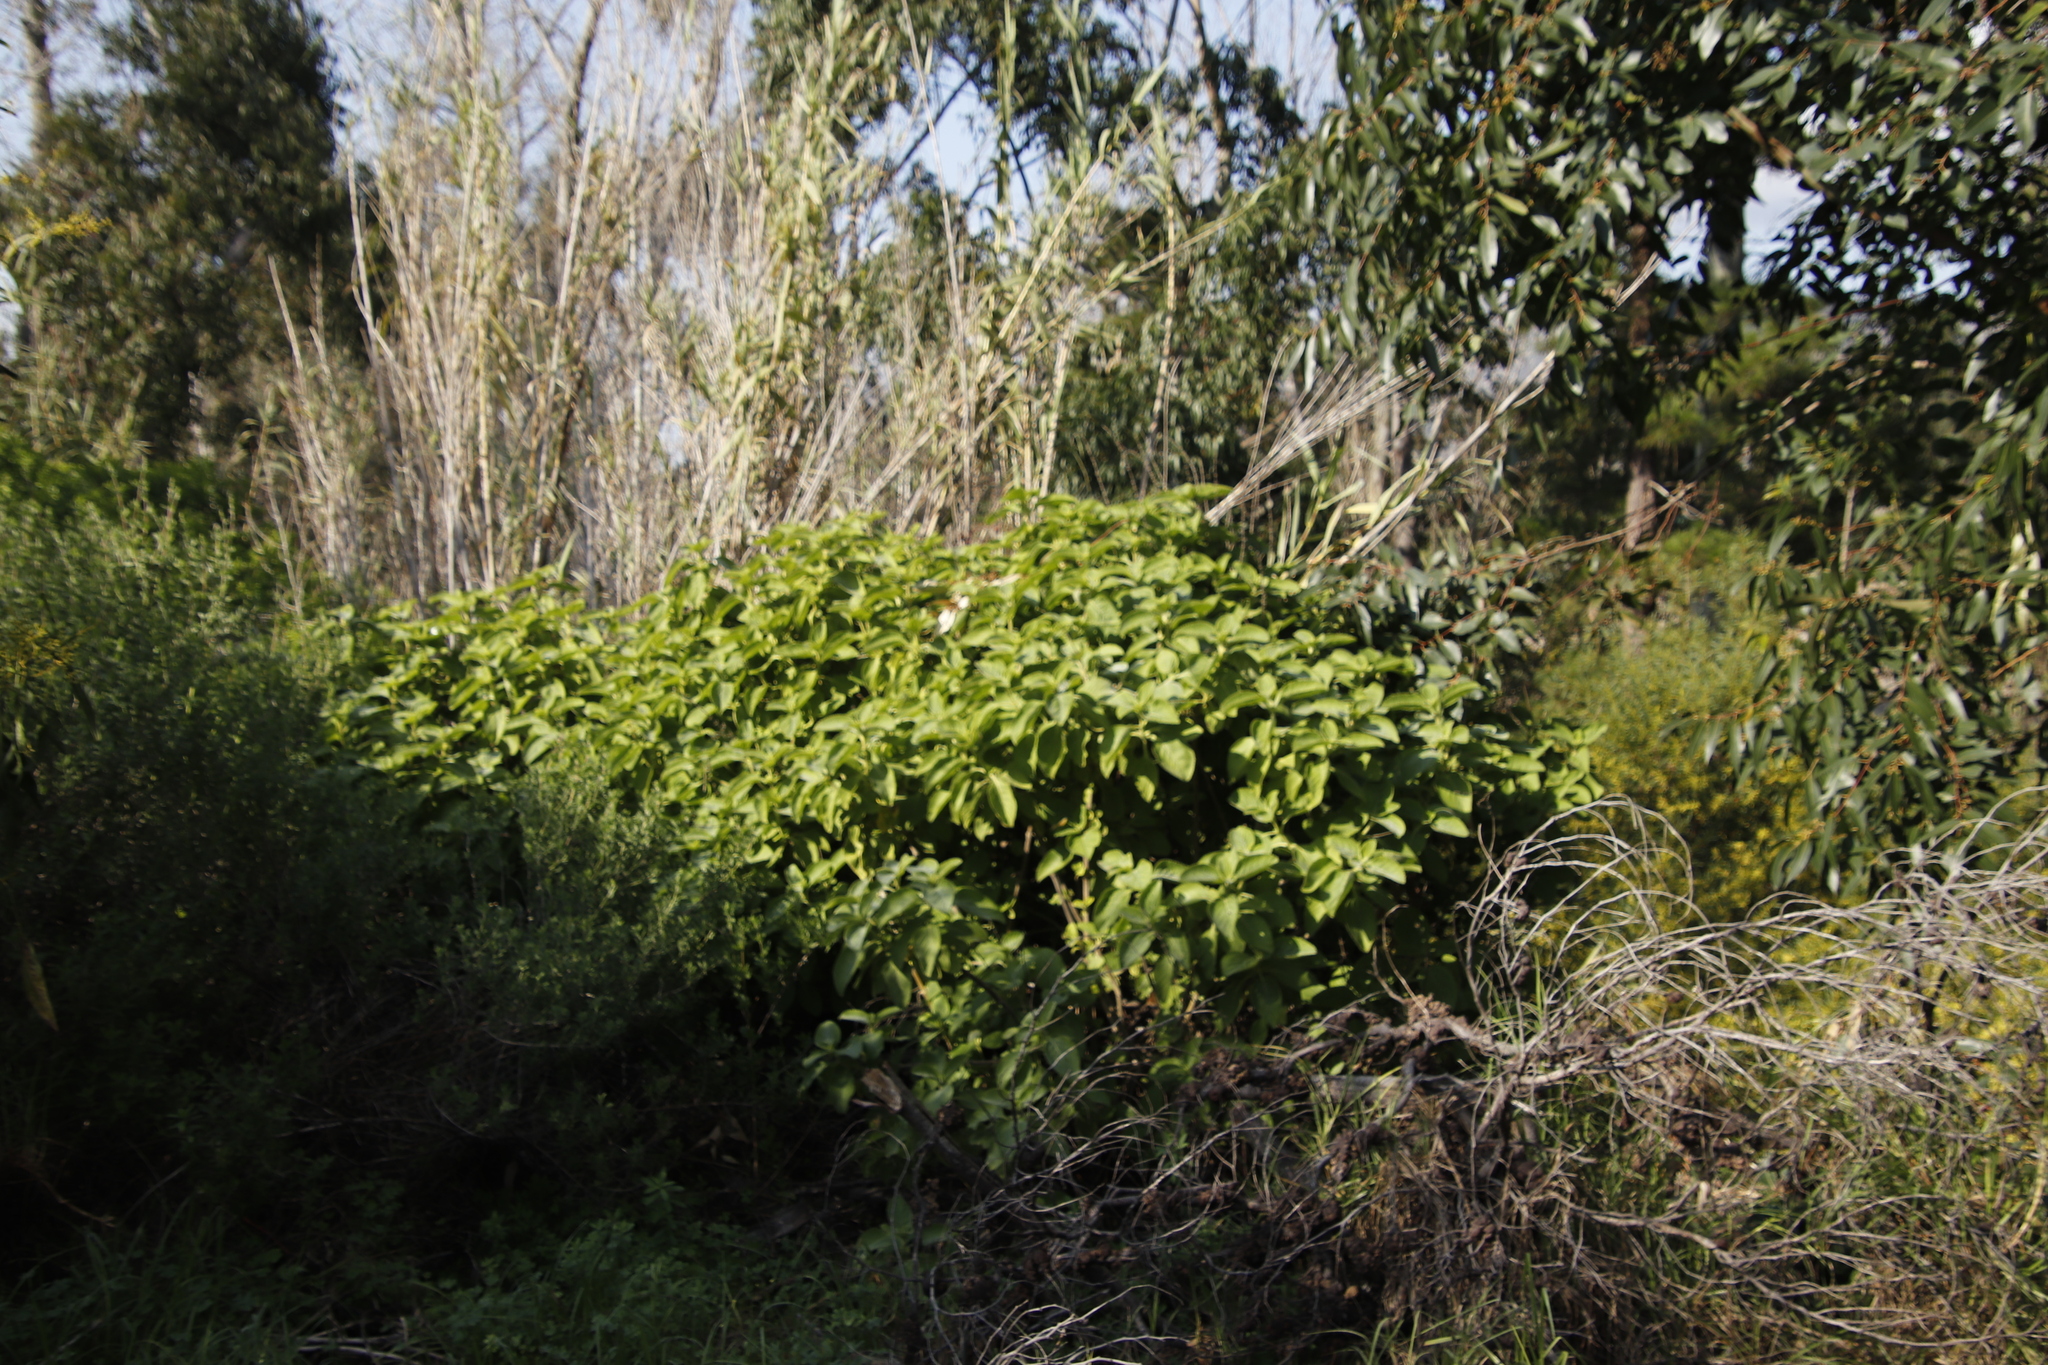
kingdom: Plantae
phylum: Tracheophyta
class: Magnoliopsida
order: Lamiales
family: Lamiaceae
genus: Coleus
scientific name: Coleus barbatus
